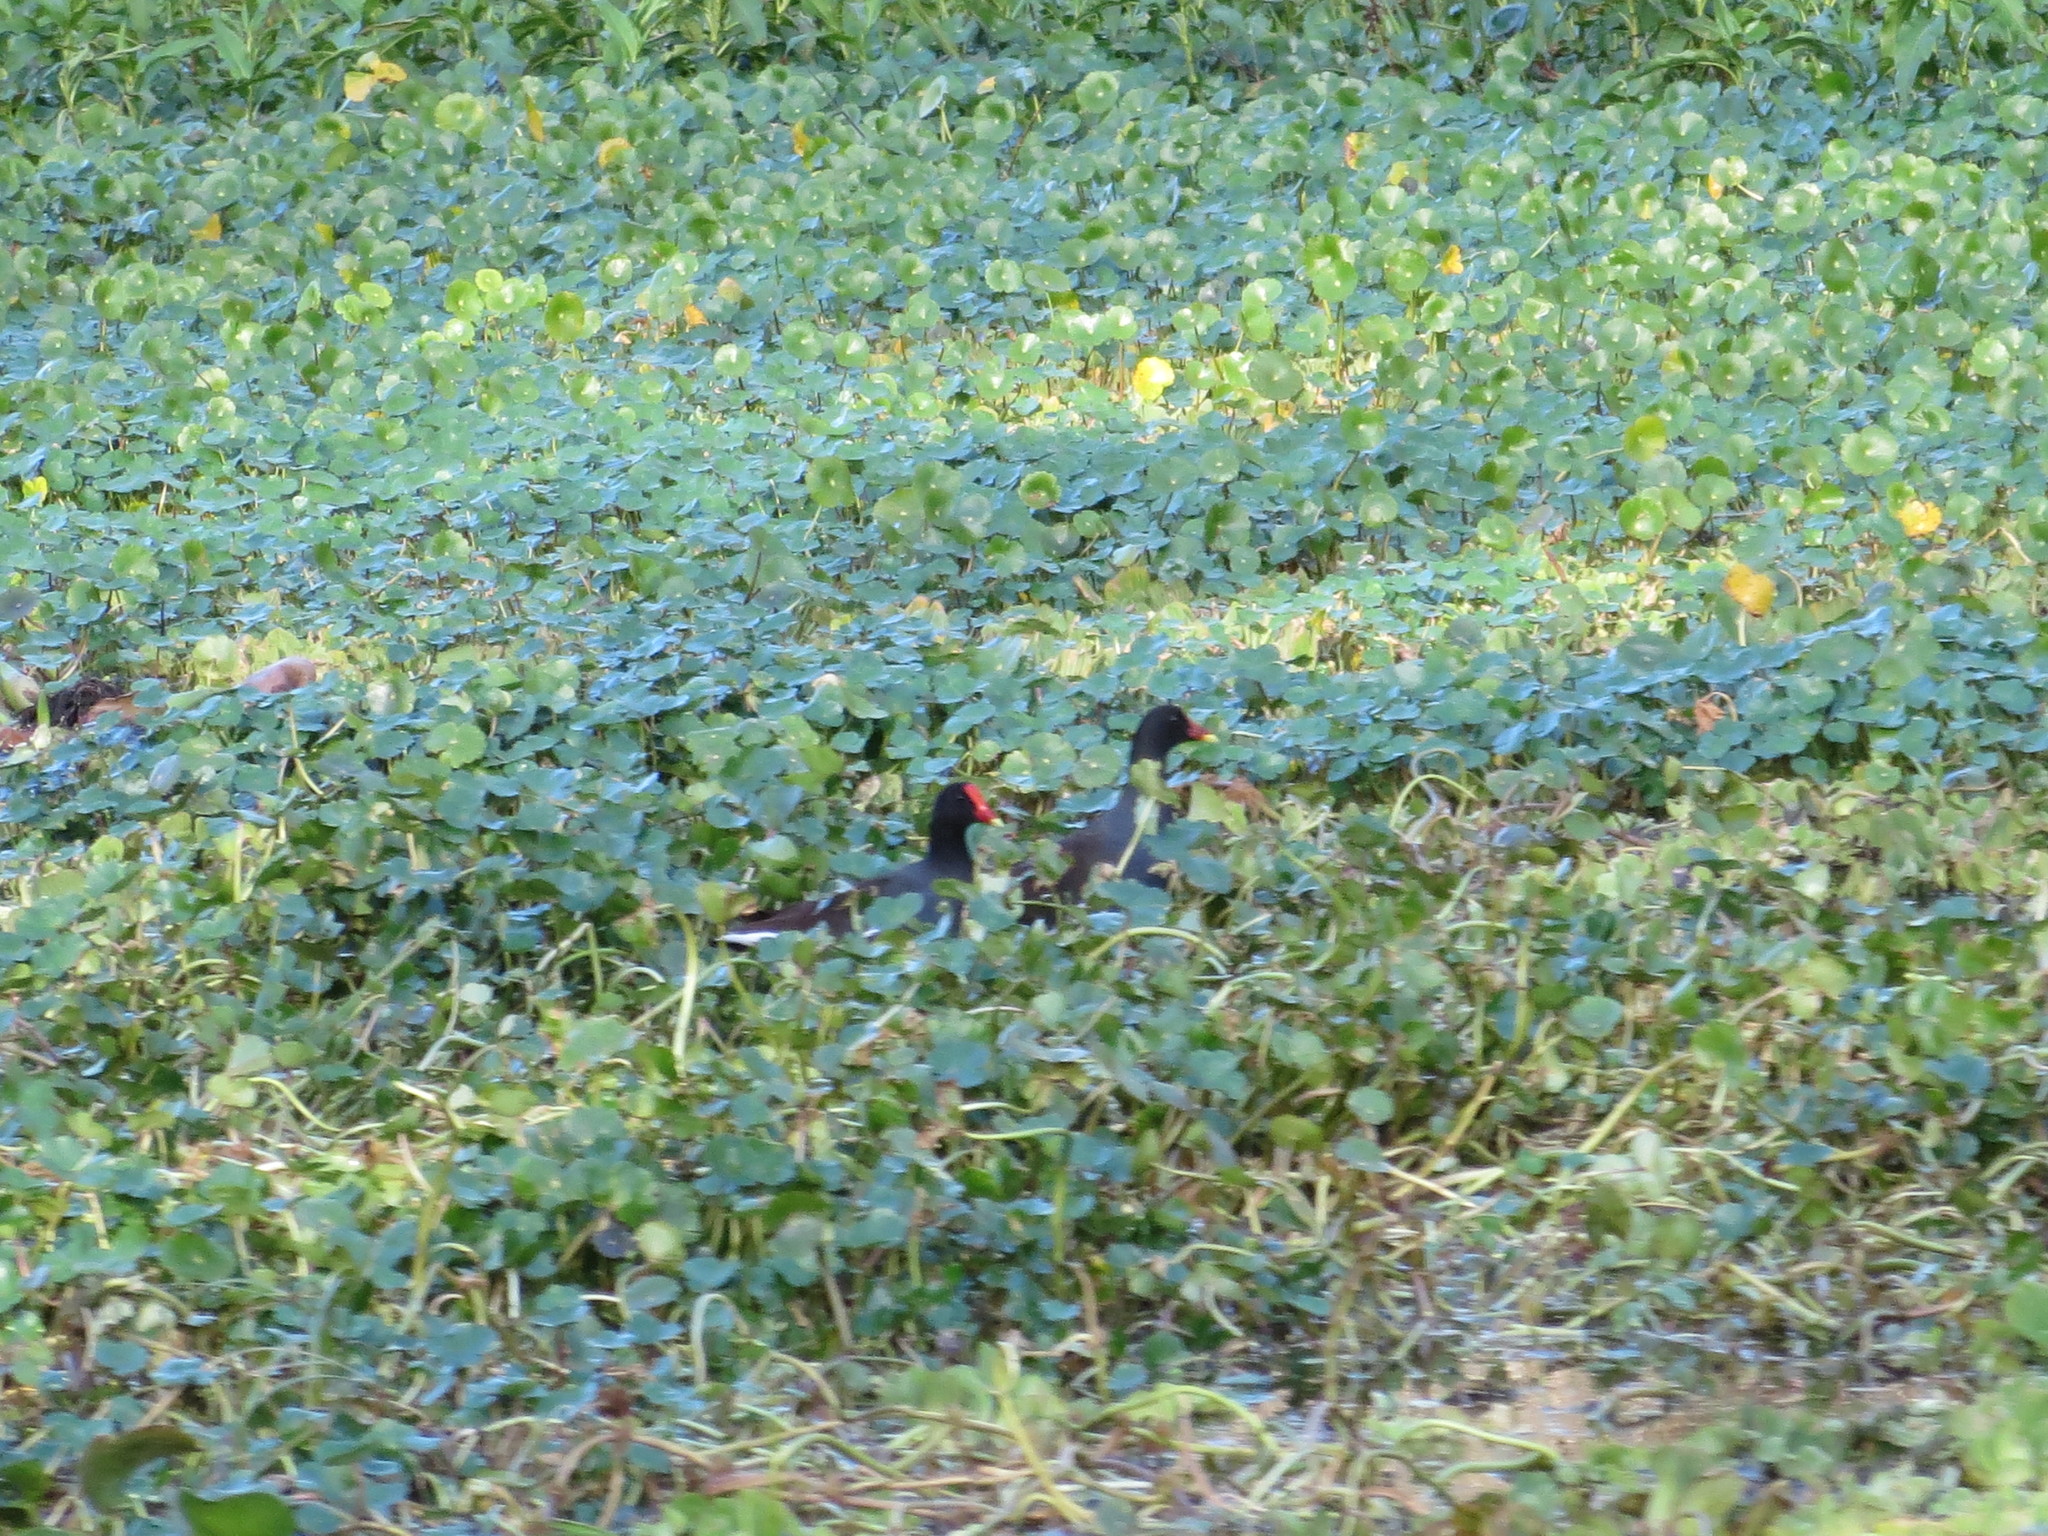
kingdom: Animalia
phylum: Chordata
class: Aves
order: Gruiformes
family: Rallidae
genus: Gallinula
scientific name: Gallinula chloropus
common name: Common moorhen
